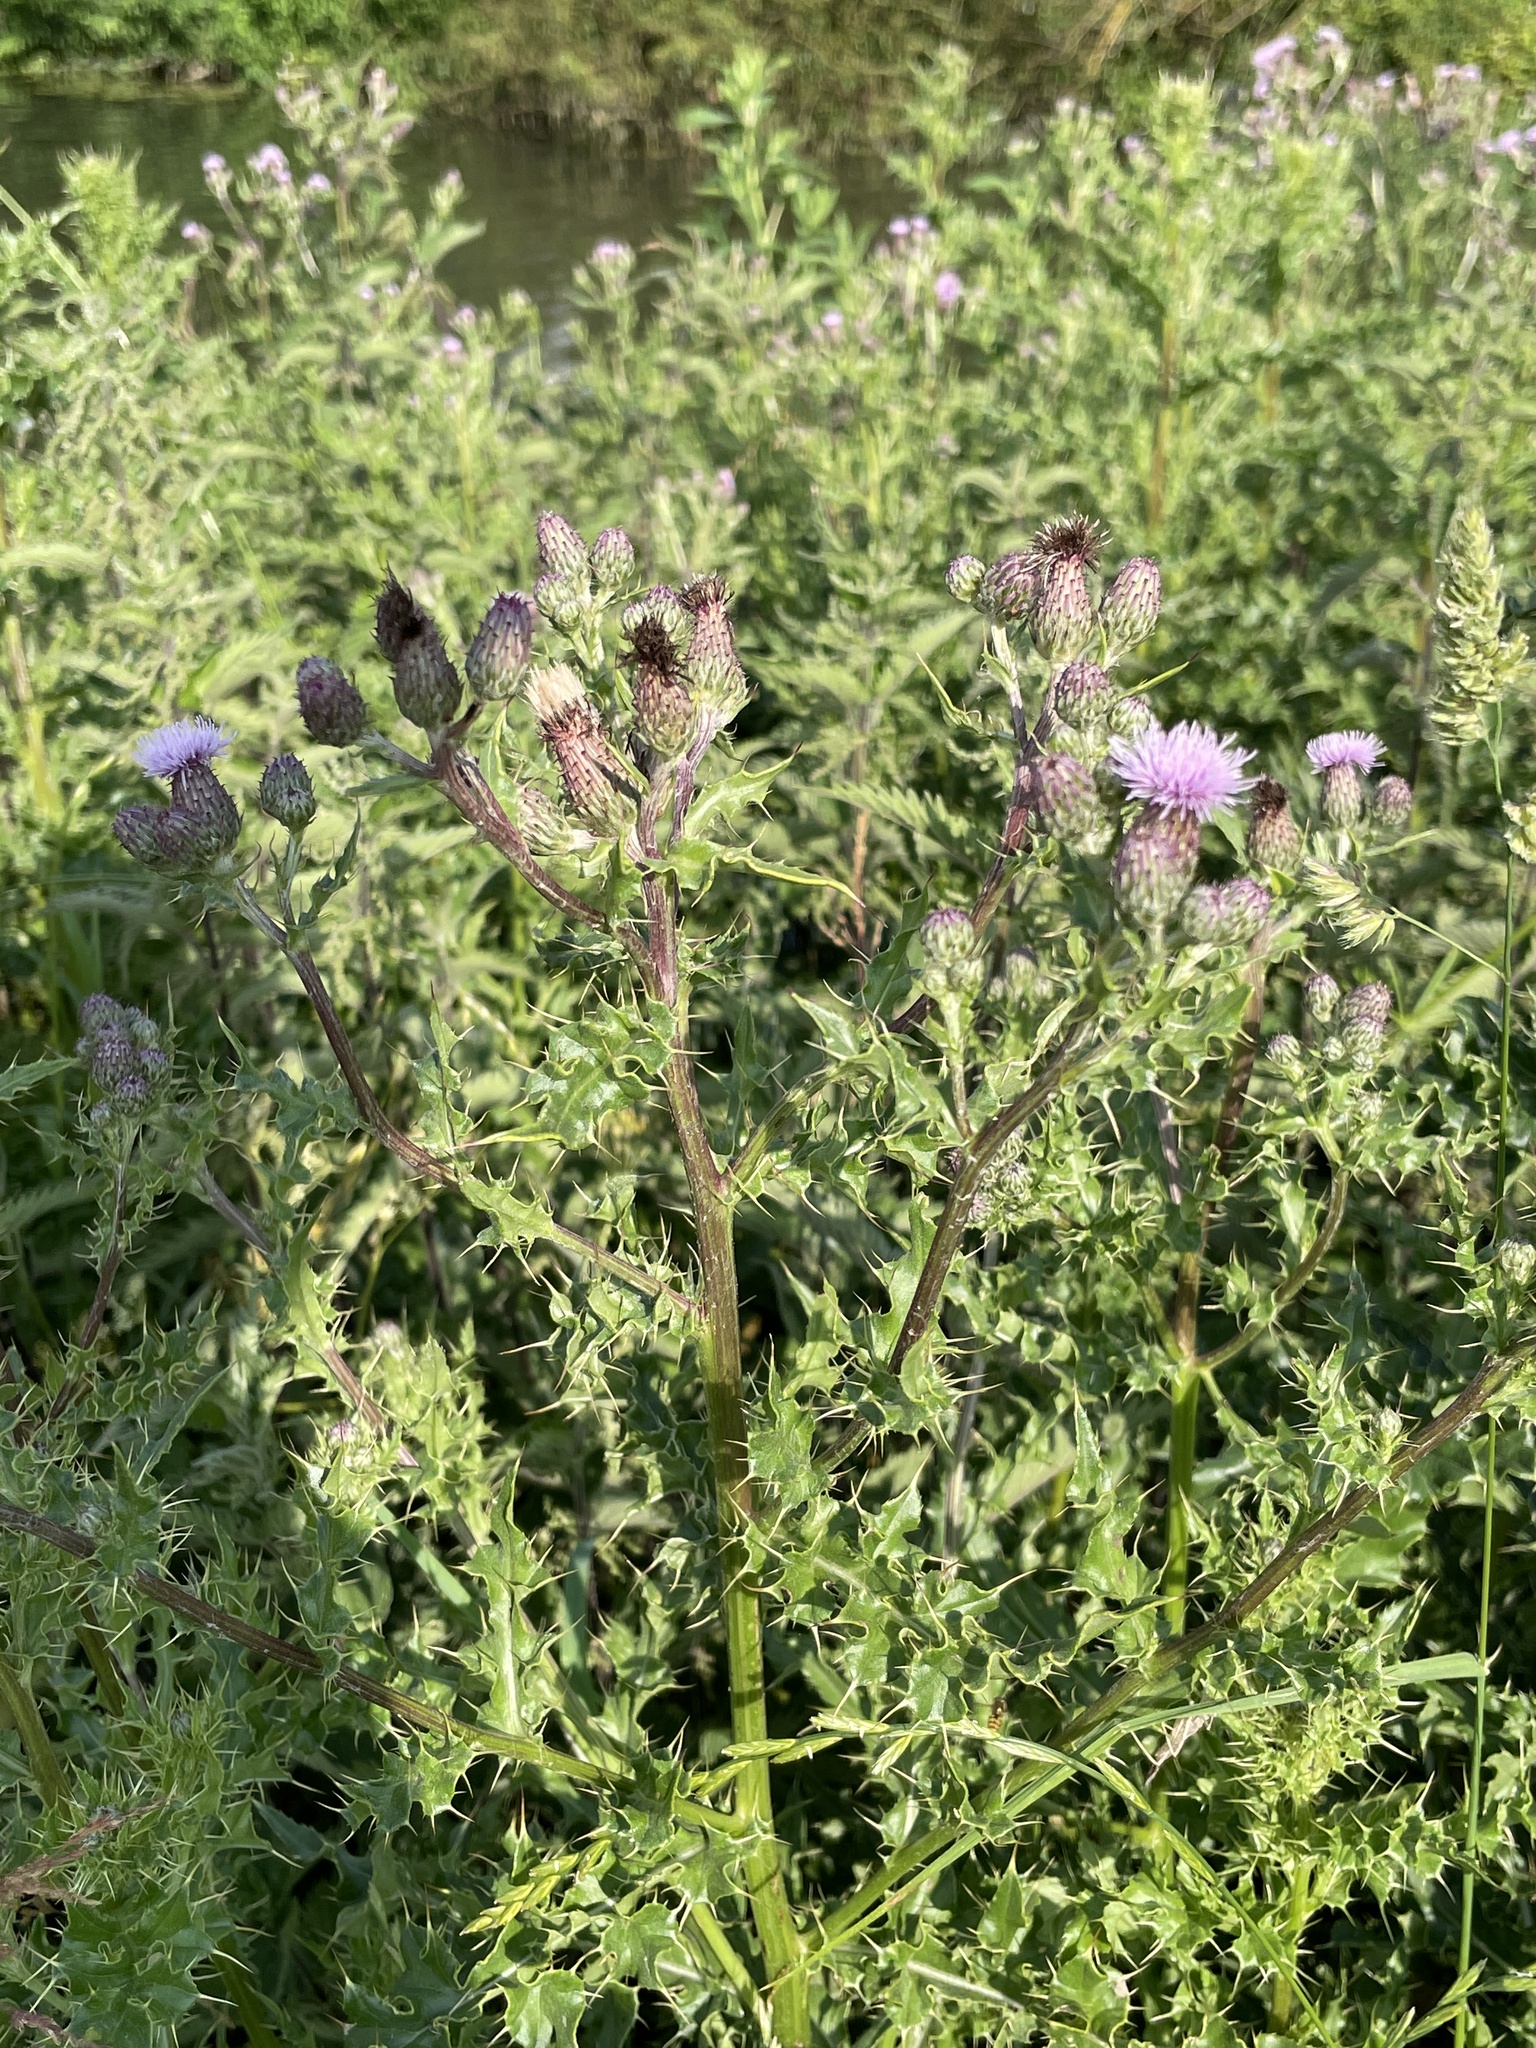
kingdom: Plantae
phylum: Tracheophyta
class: Magnoliopsida
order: Asterales
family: Asteraceae
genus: Cirsium
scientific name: Cirsium arvense
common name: Creeping thistle
